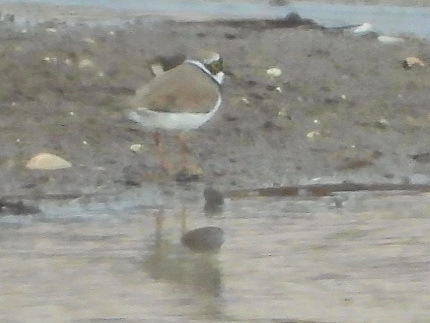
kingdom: Animalia
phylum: Chordata
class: Aves
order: Charadriiformes
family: Charadriidae
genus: Charadrius
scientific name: Charadrius dubius
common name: Little ringed plover
